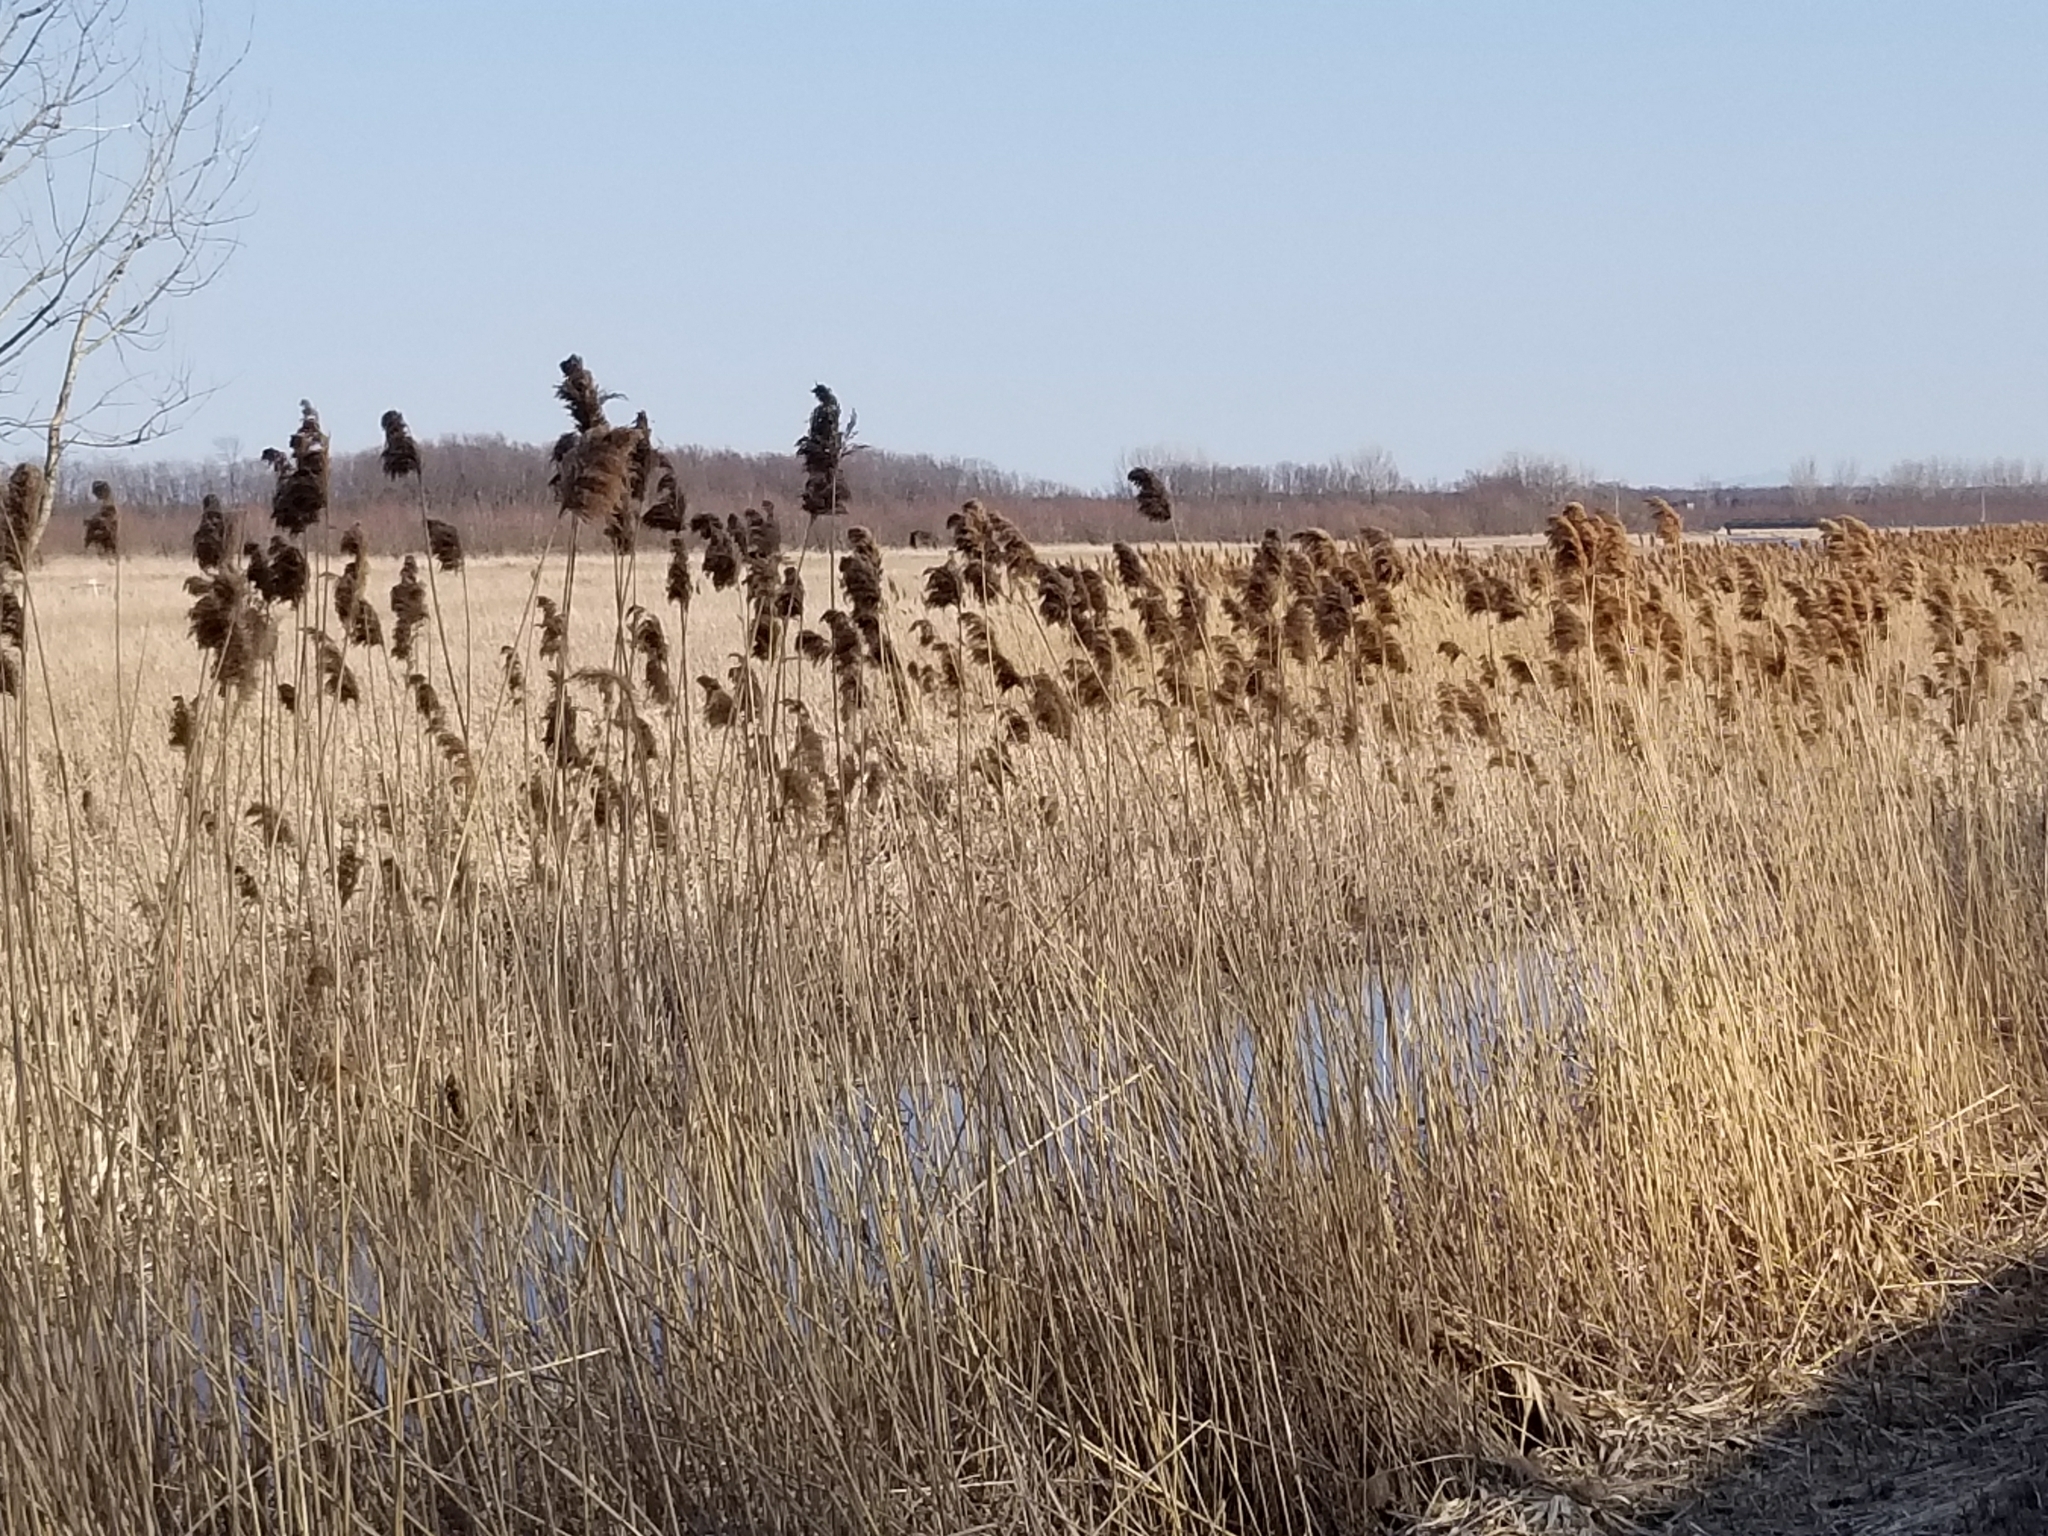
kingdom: Plantae
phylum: Tracheophyta
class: Liliopsida
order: Poales
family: Poaceae
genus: Phragmites
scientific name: Phragmites australis
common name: Common reed
